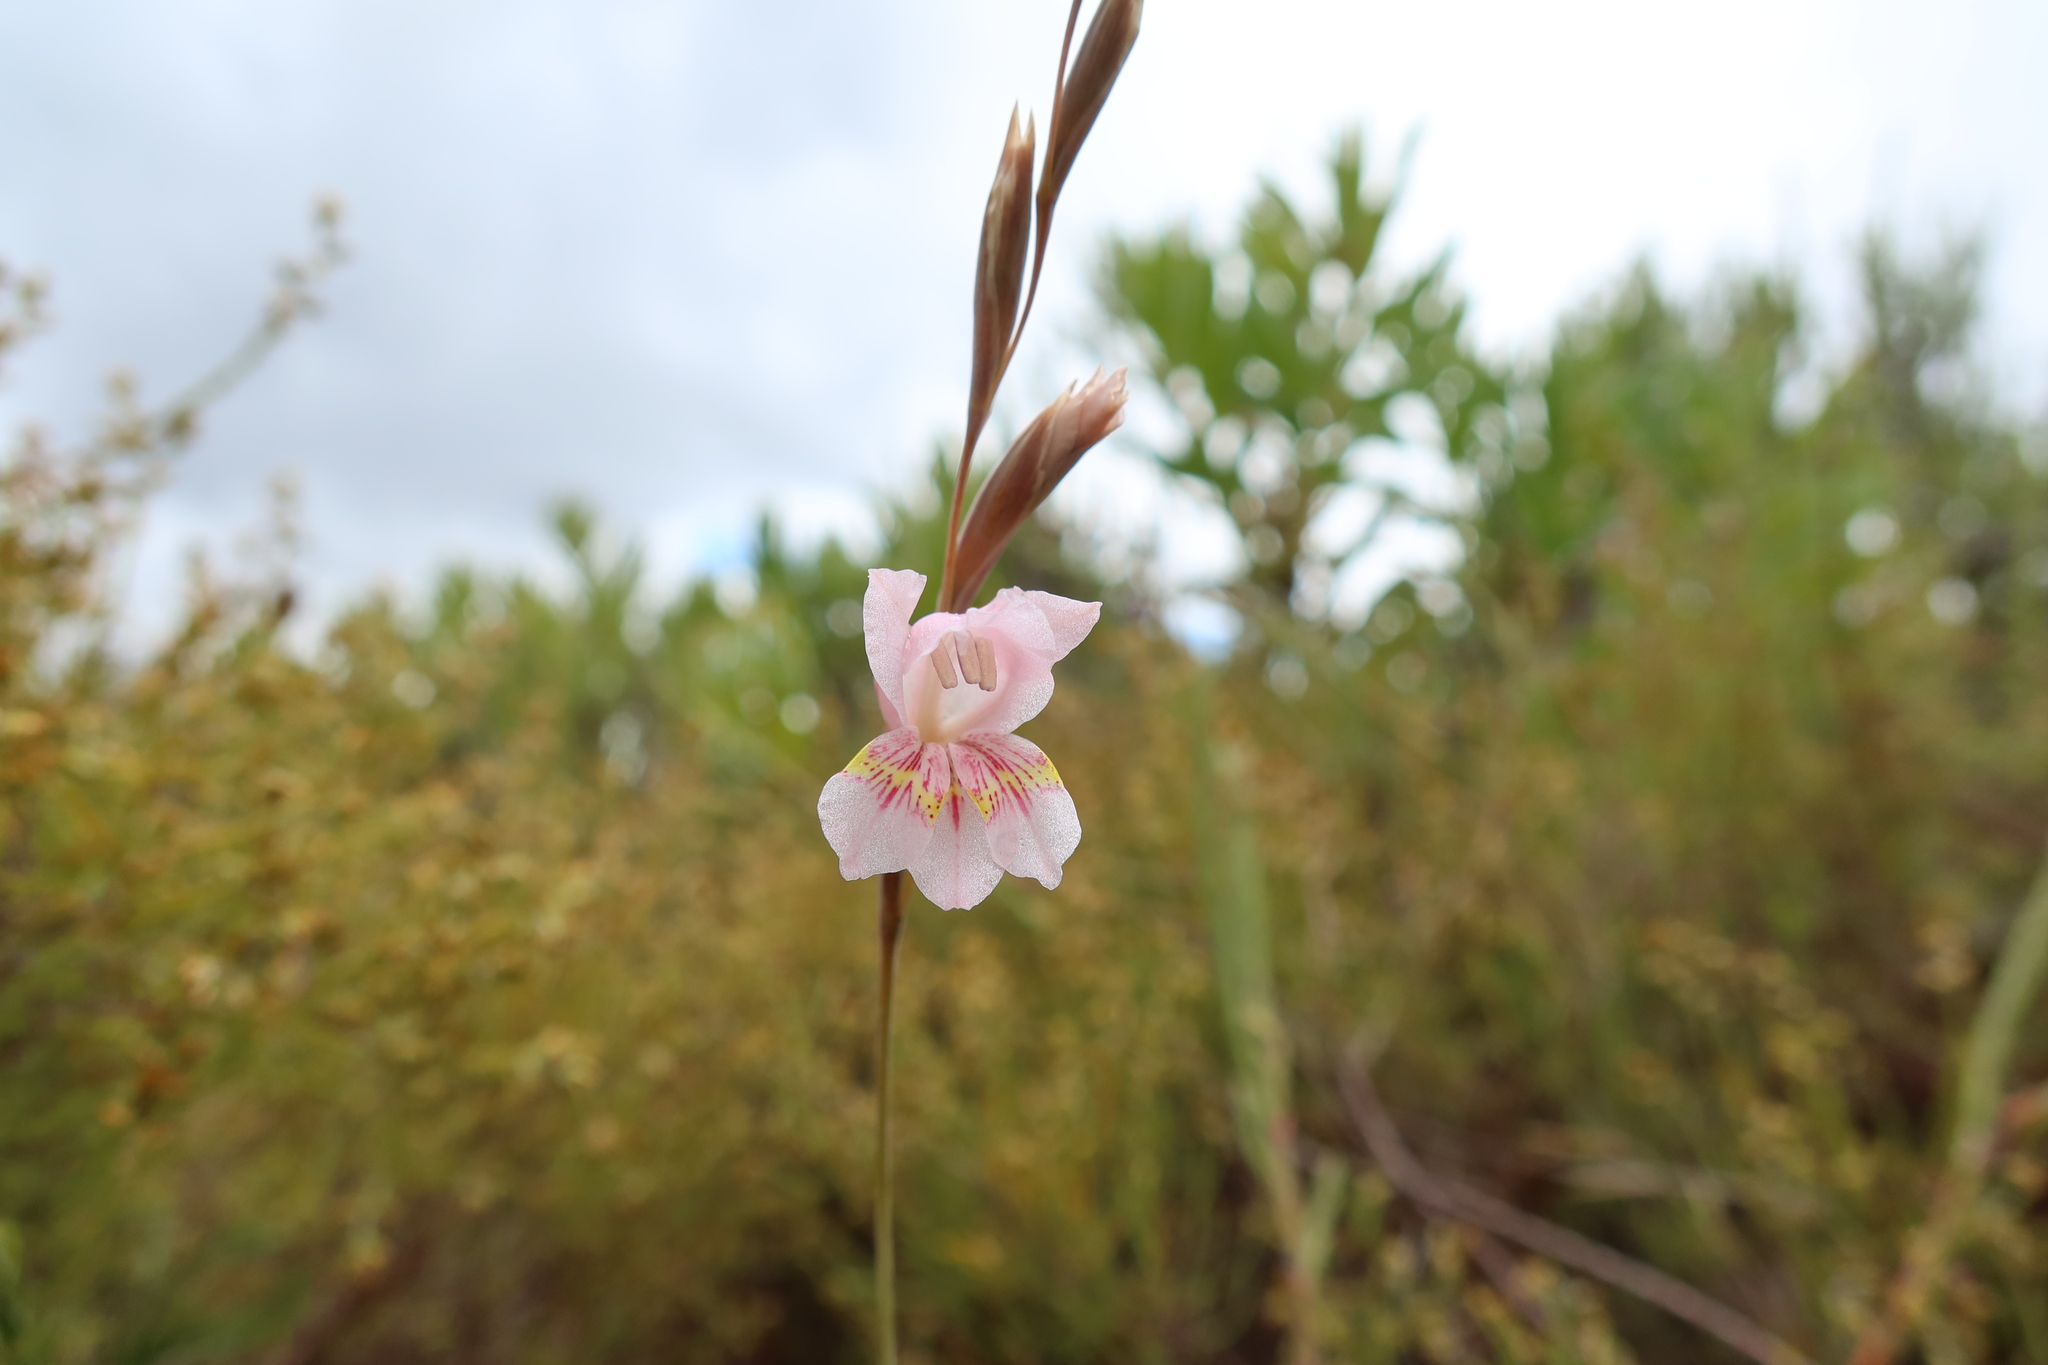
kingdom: Plantae
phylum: Tracheophyta
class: Liliopsida
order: Asparagales
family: Iridaceae
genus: Gladiolus
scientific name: Gladiolus brevifolius
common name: March pypie
